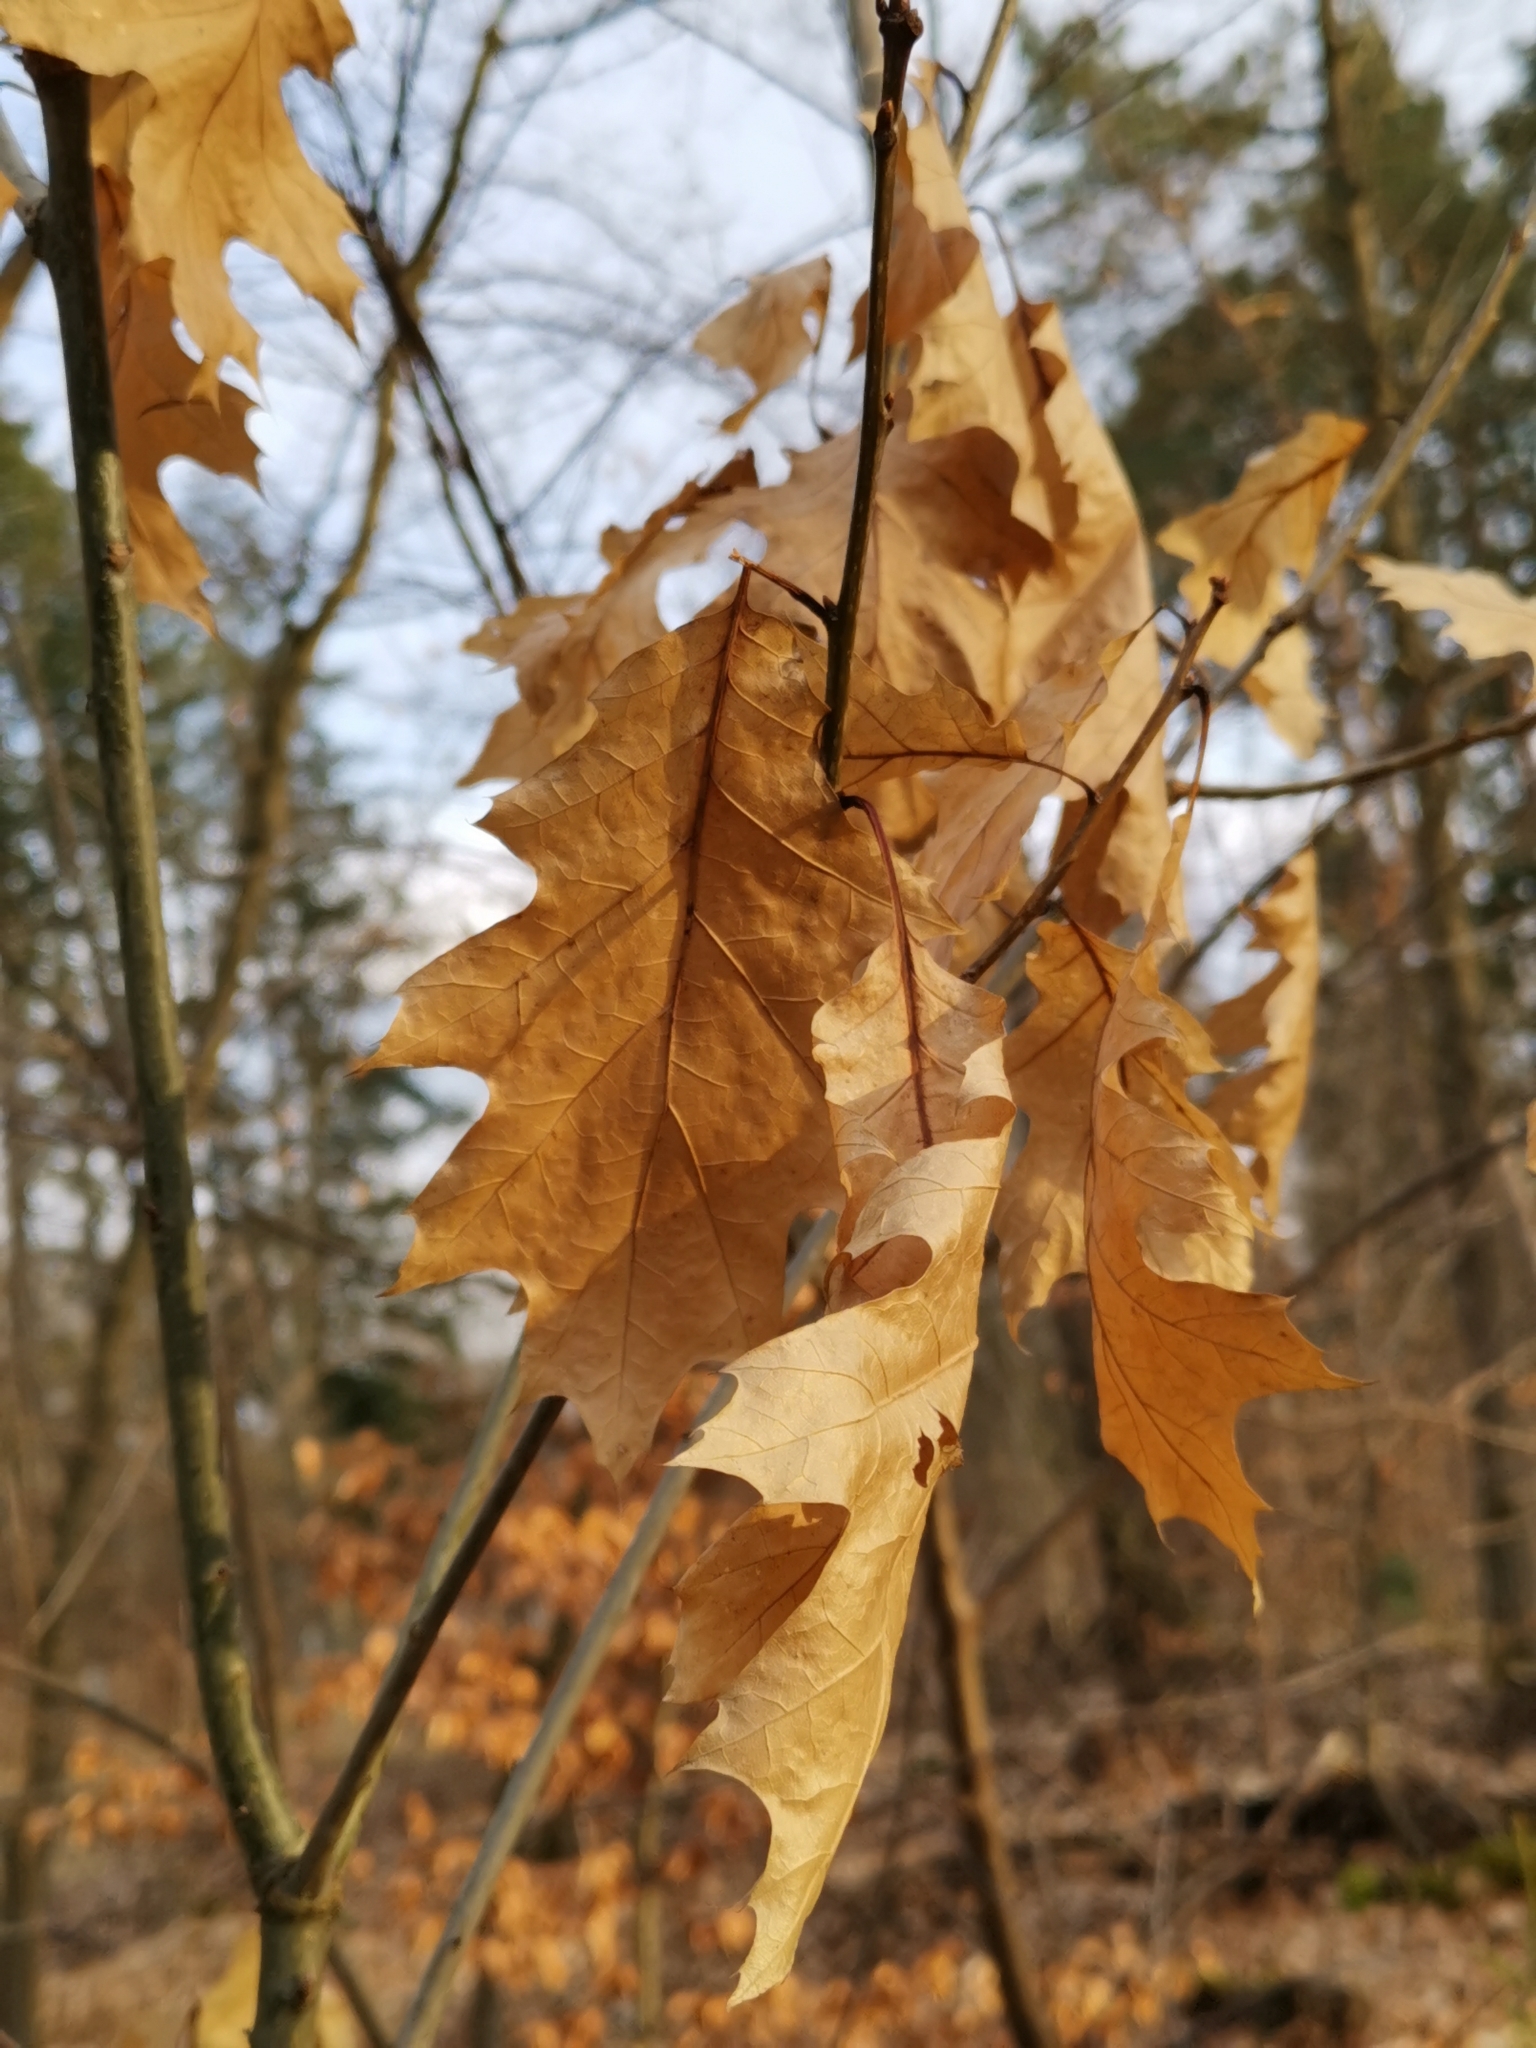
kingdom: Plantae
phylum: Tracheophyta
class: Magnoliopsida
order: Fagales
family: Fagaceae
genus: Quercus
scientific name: Quercus rubra
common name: Red oak
